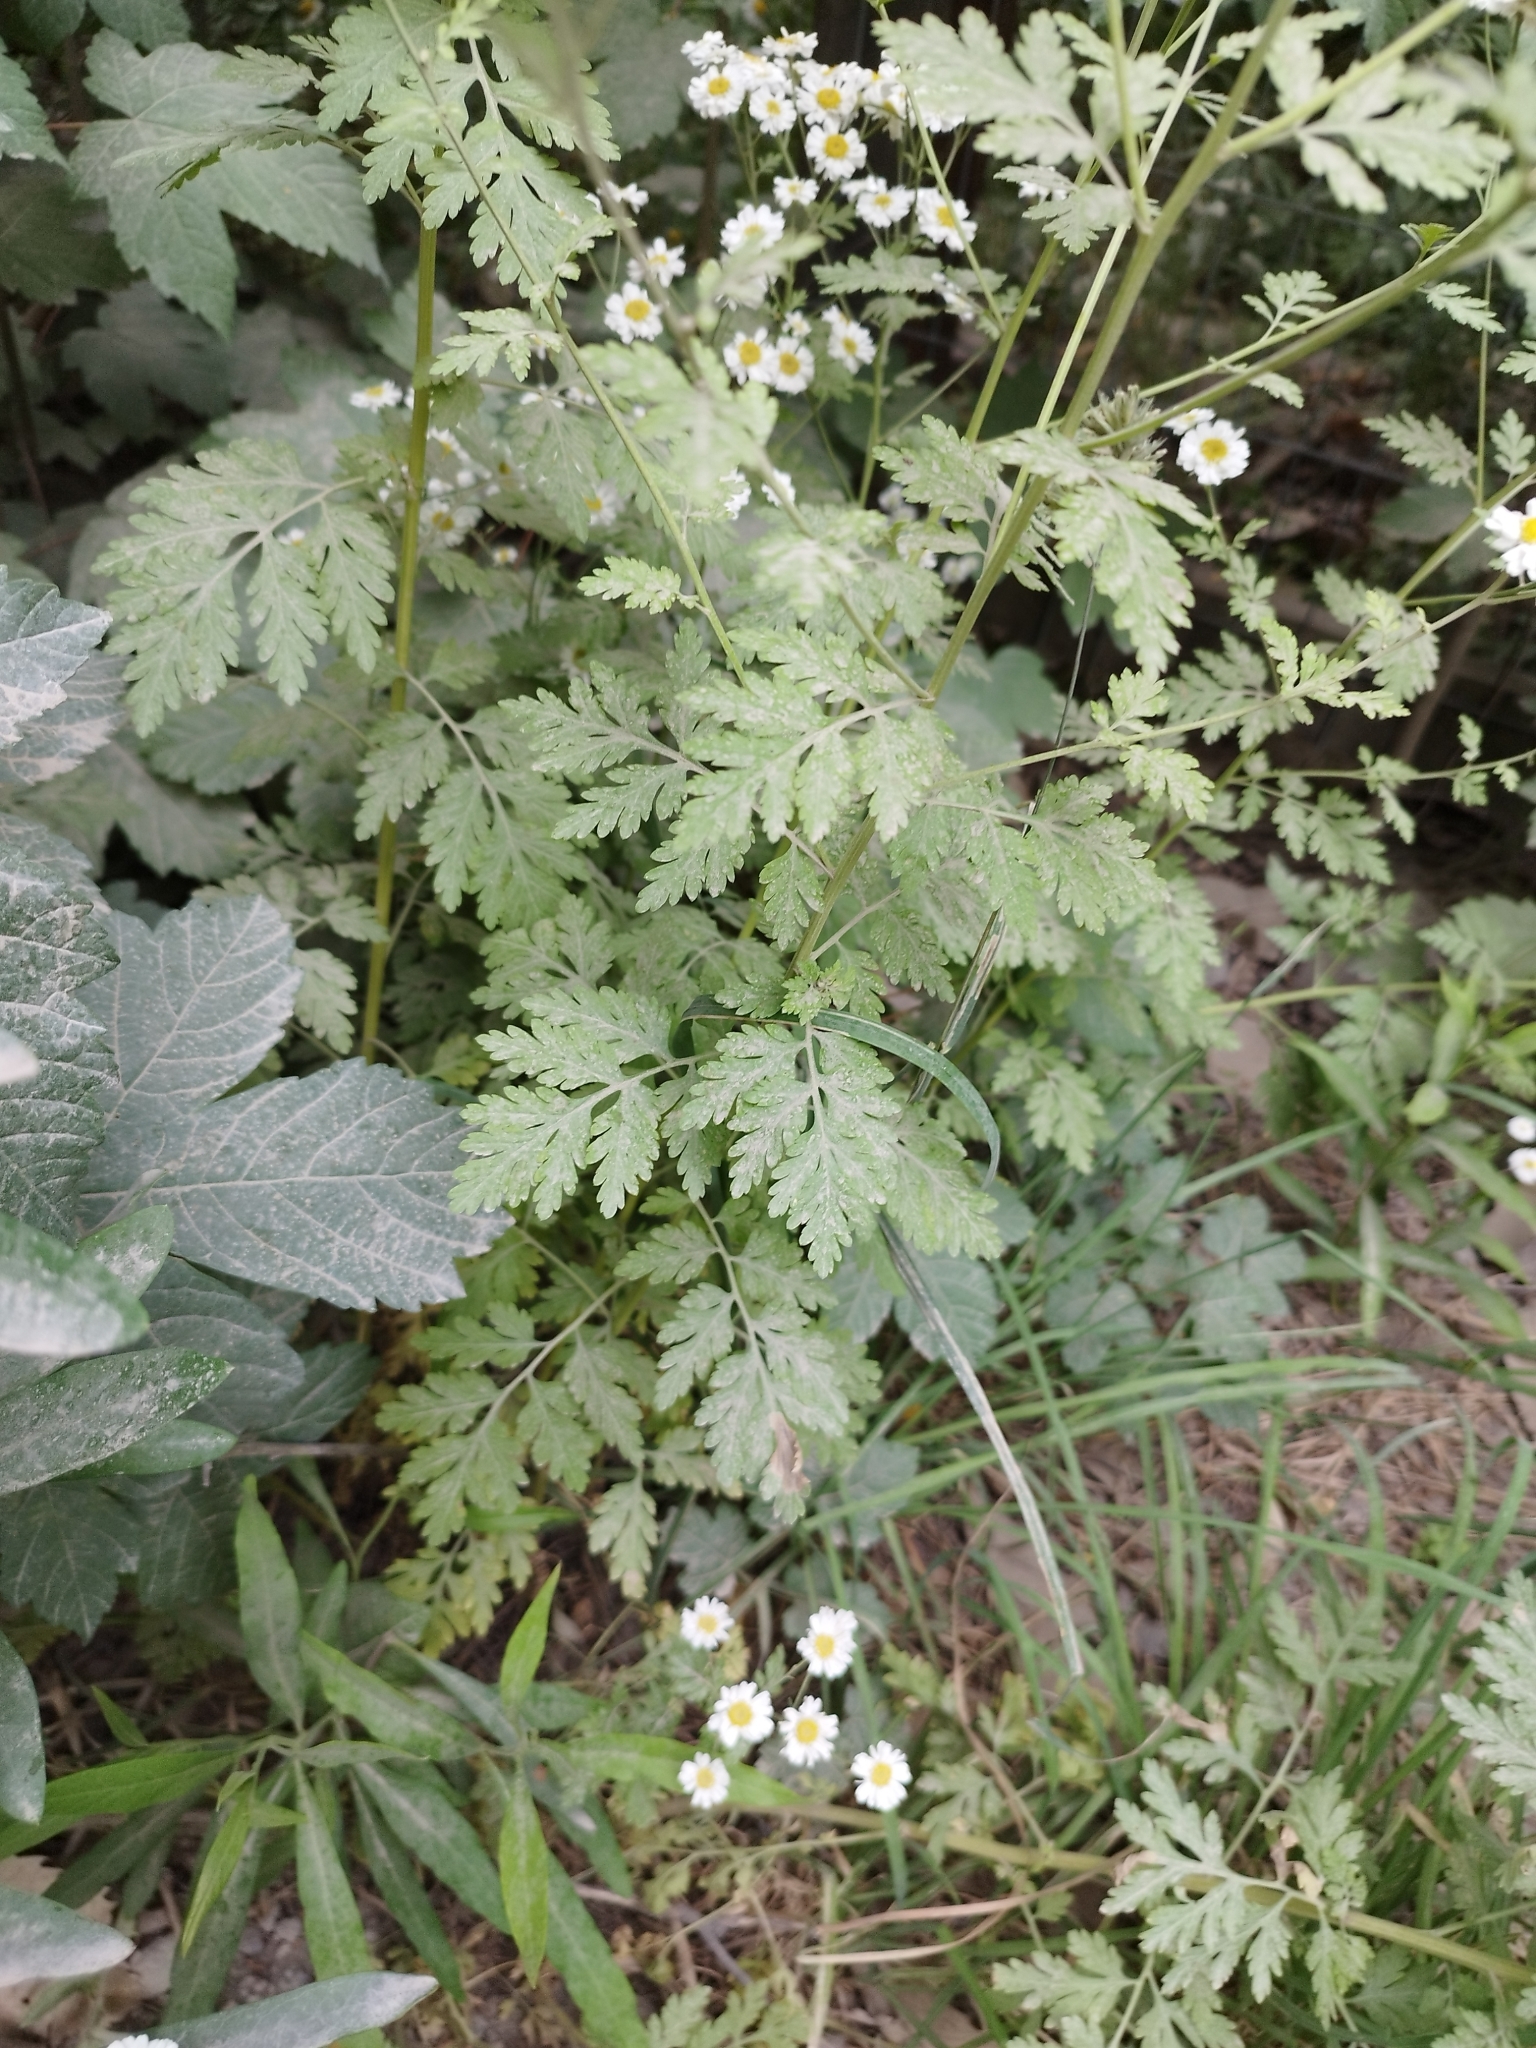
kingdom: Plantae
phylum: Tracheophyta
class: Magnoliopsida
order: Asterales
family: Asteraceae
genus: Tanacetum
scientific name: Tanacetum parthenium
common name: Feverfew
